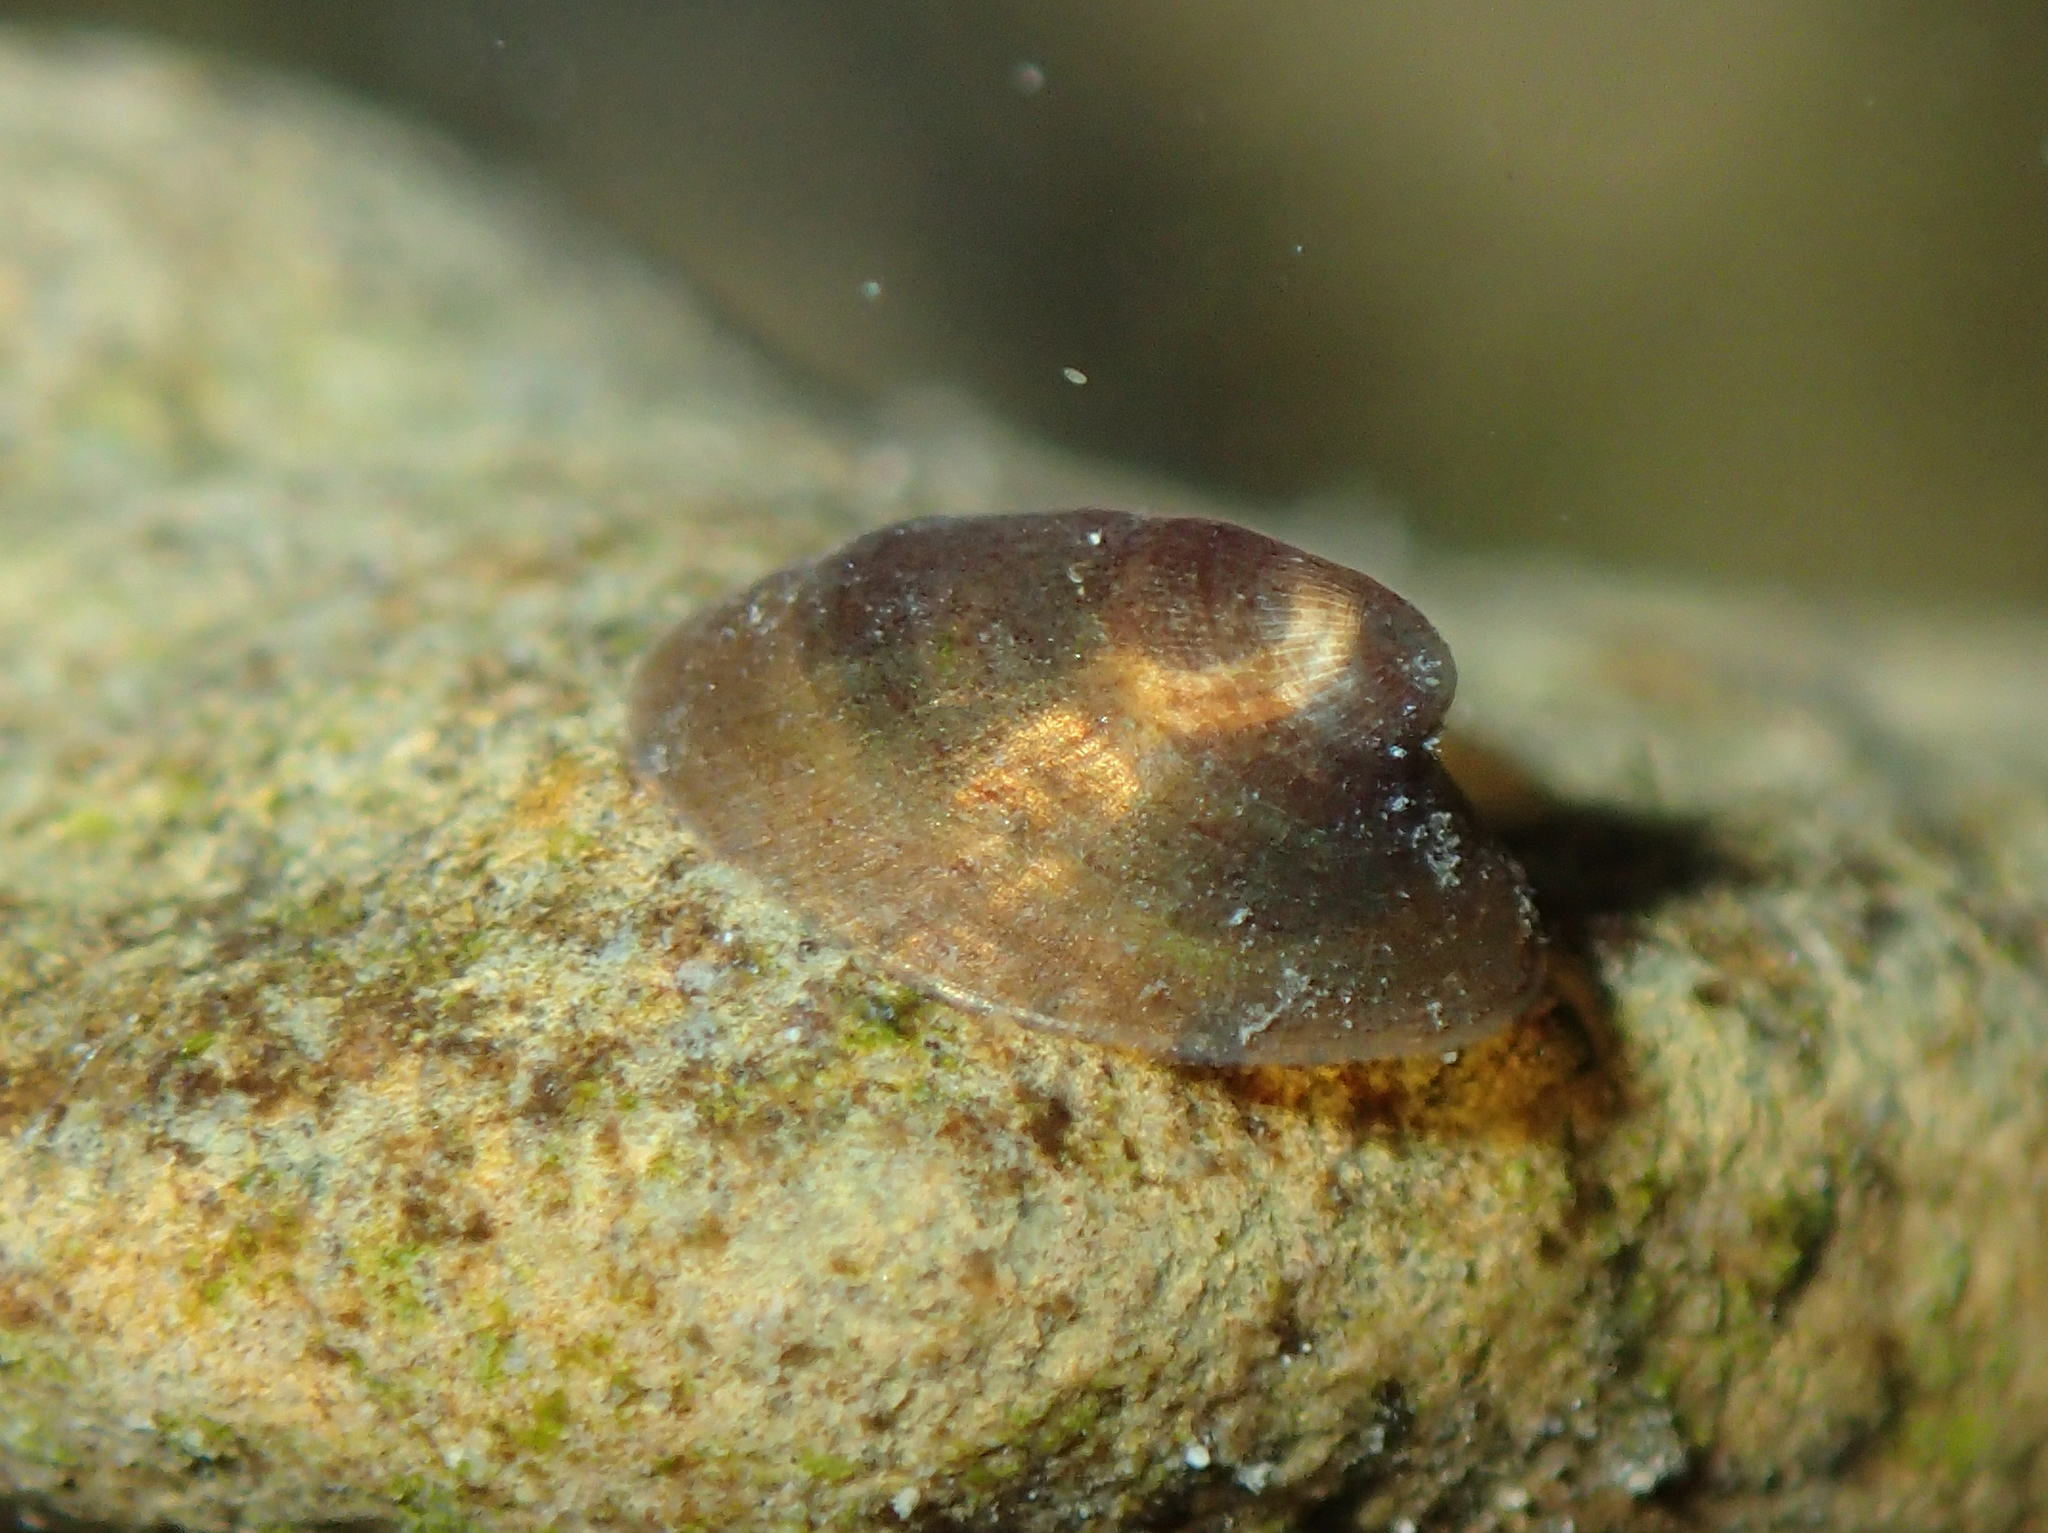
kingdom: Animalia
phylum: Mollusca
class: Gastropoda
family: Planorbidae
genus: Ancylus
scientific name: Ancylus fluviatilis
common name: River limpet
